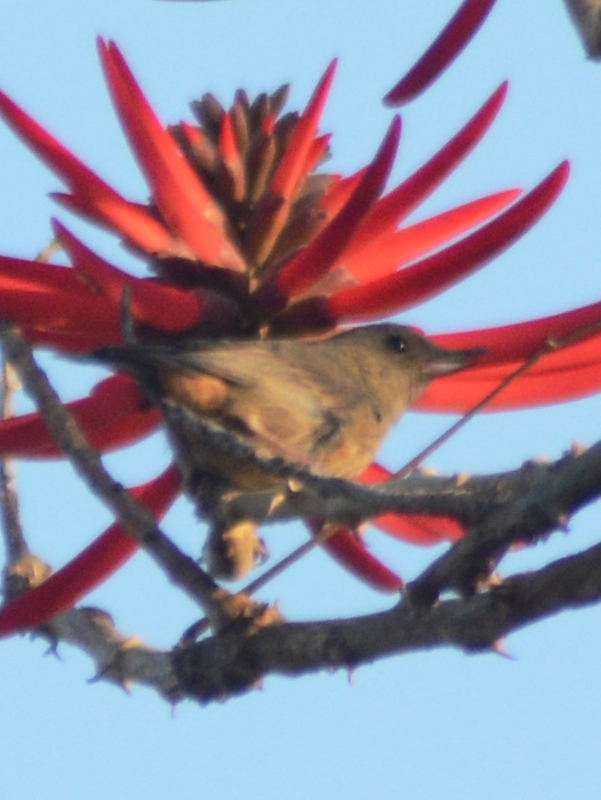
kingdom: Animalia
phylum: Chordata
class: Aves
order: Passeriformes
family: Thraupidae
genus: Diglossa
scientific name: Diglossa baritula
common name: Cinnamon-bellied flowerpiercer
